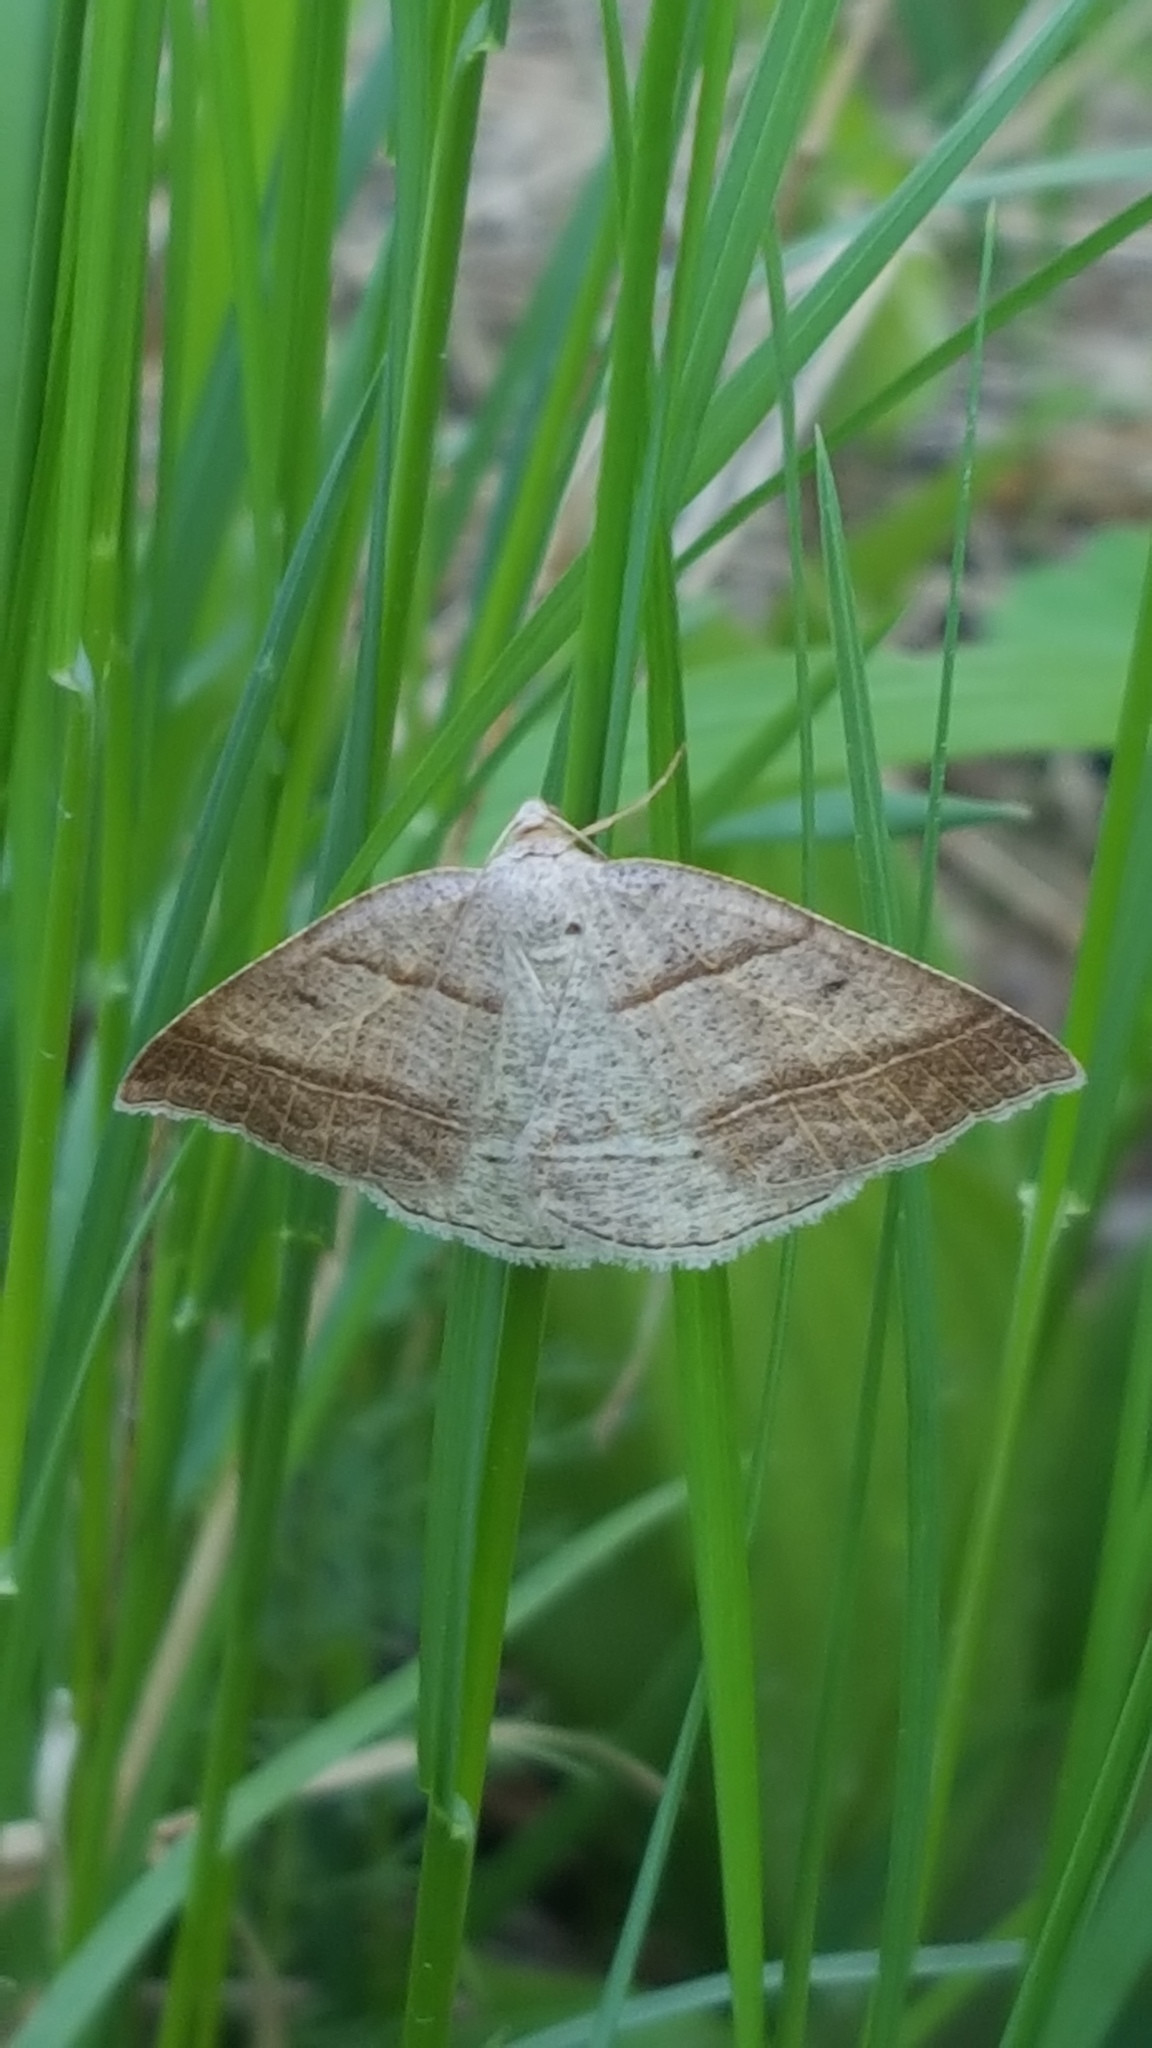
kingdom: Animalia
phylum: Arthropoda
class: Insecta
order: Lepidoptera
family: Pterophoridae
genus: Pterophorus
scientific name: Pterophorus Petrophora subaequaria
